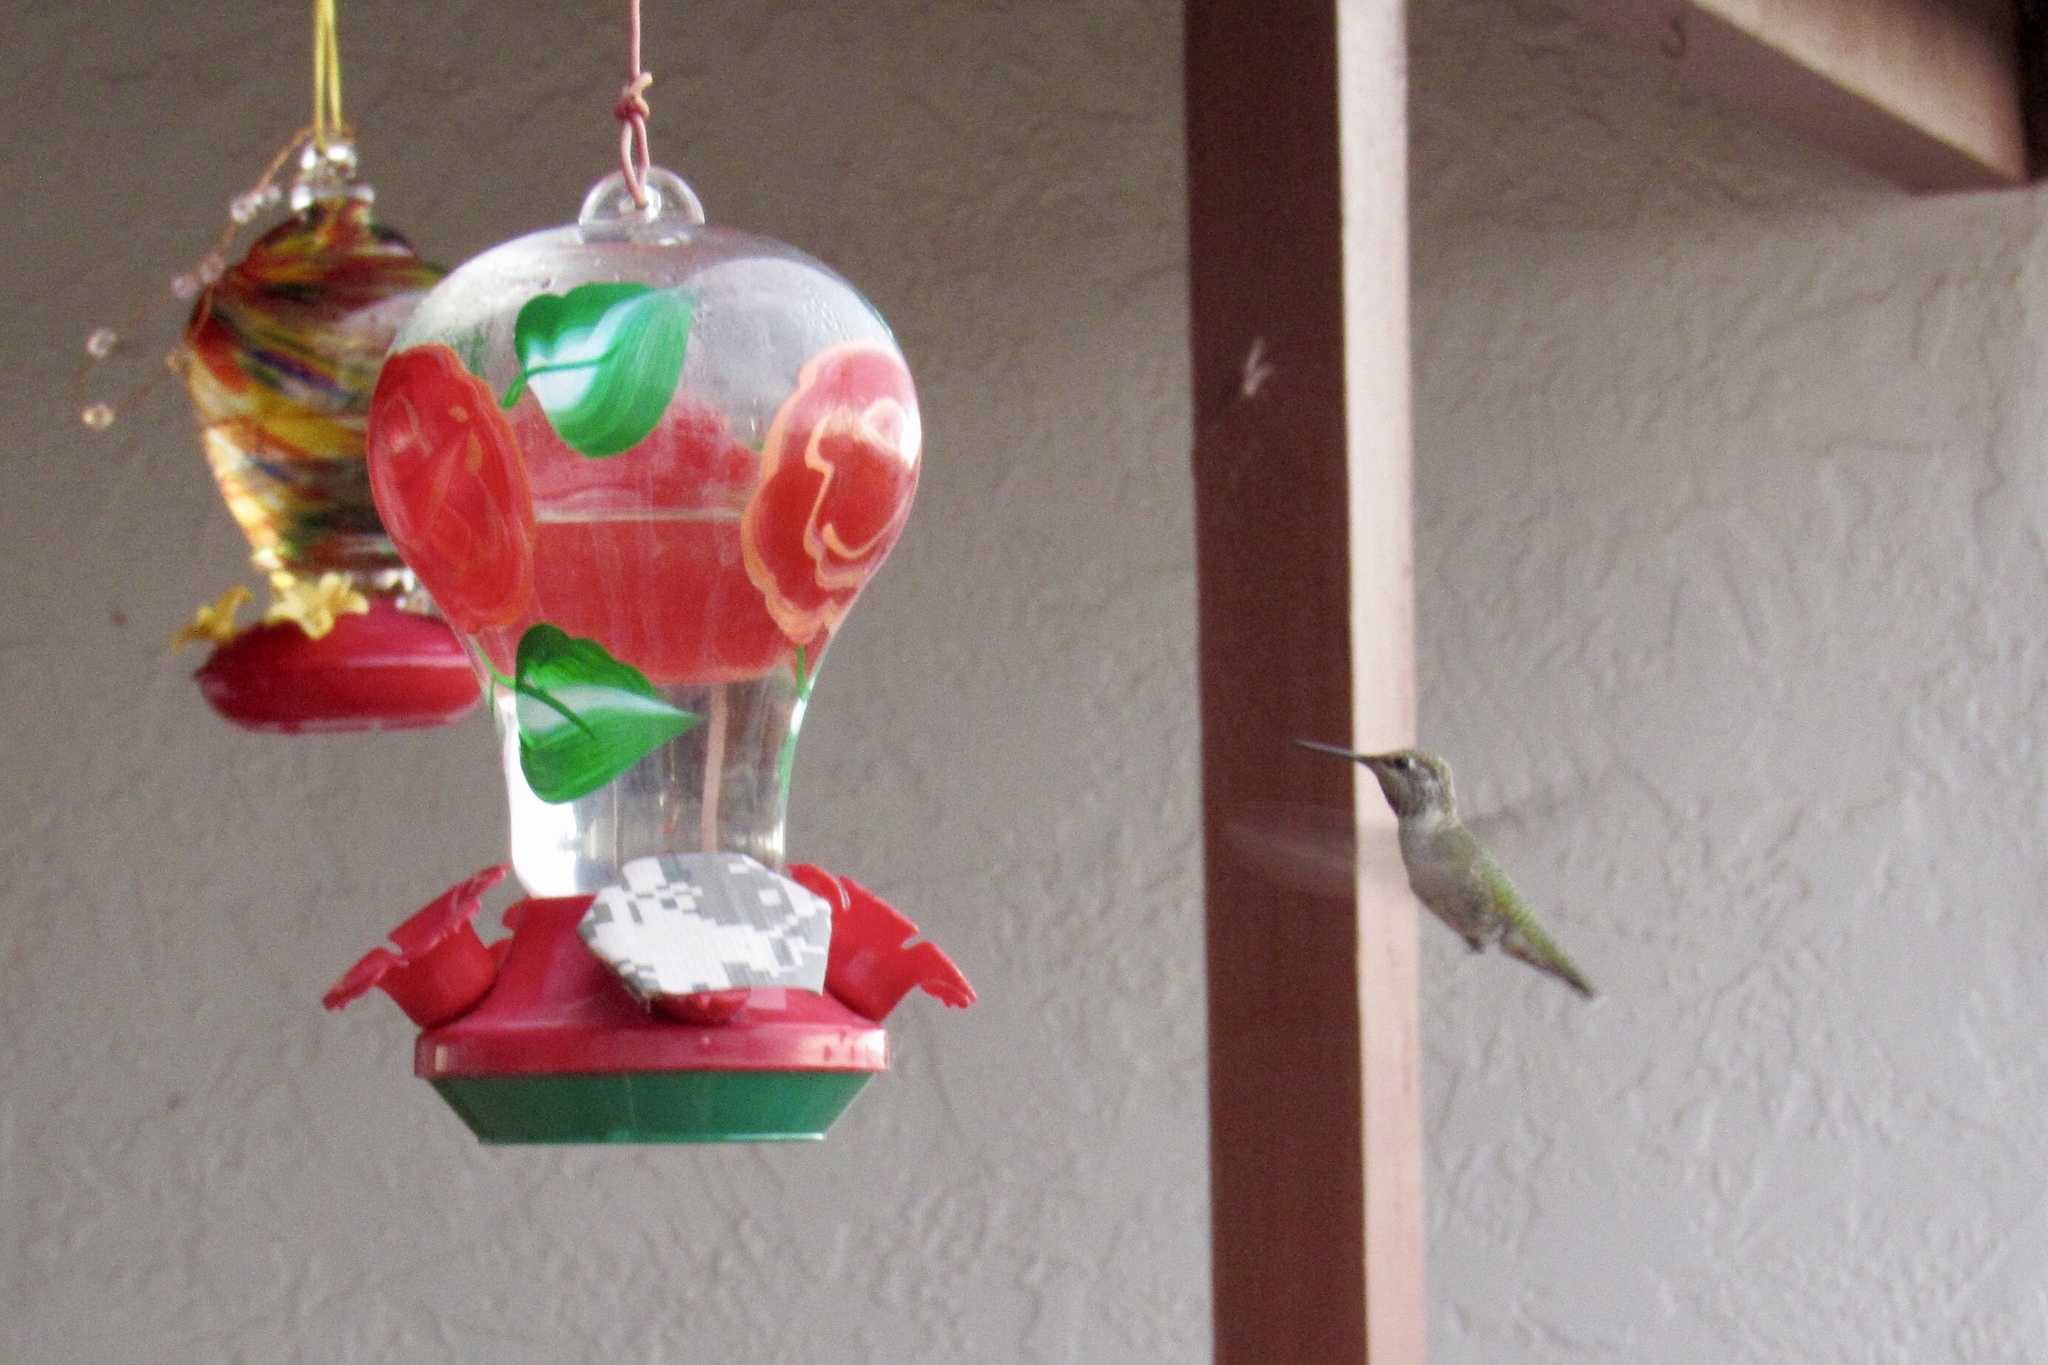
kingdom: Animalia
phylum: Chordata
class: Aves
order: Apodiformes
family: Trochilidae
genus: Archilochus
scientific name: Archilochus alexandri
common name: Black-chinned hummingbird
